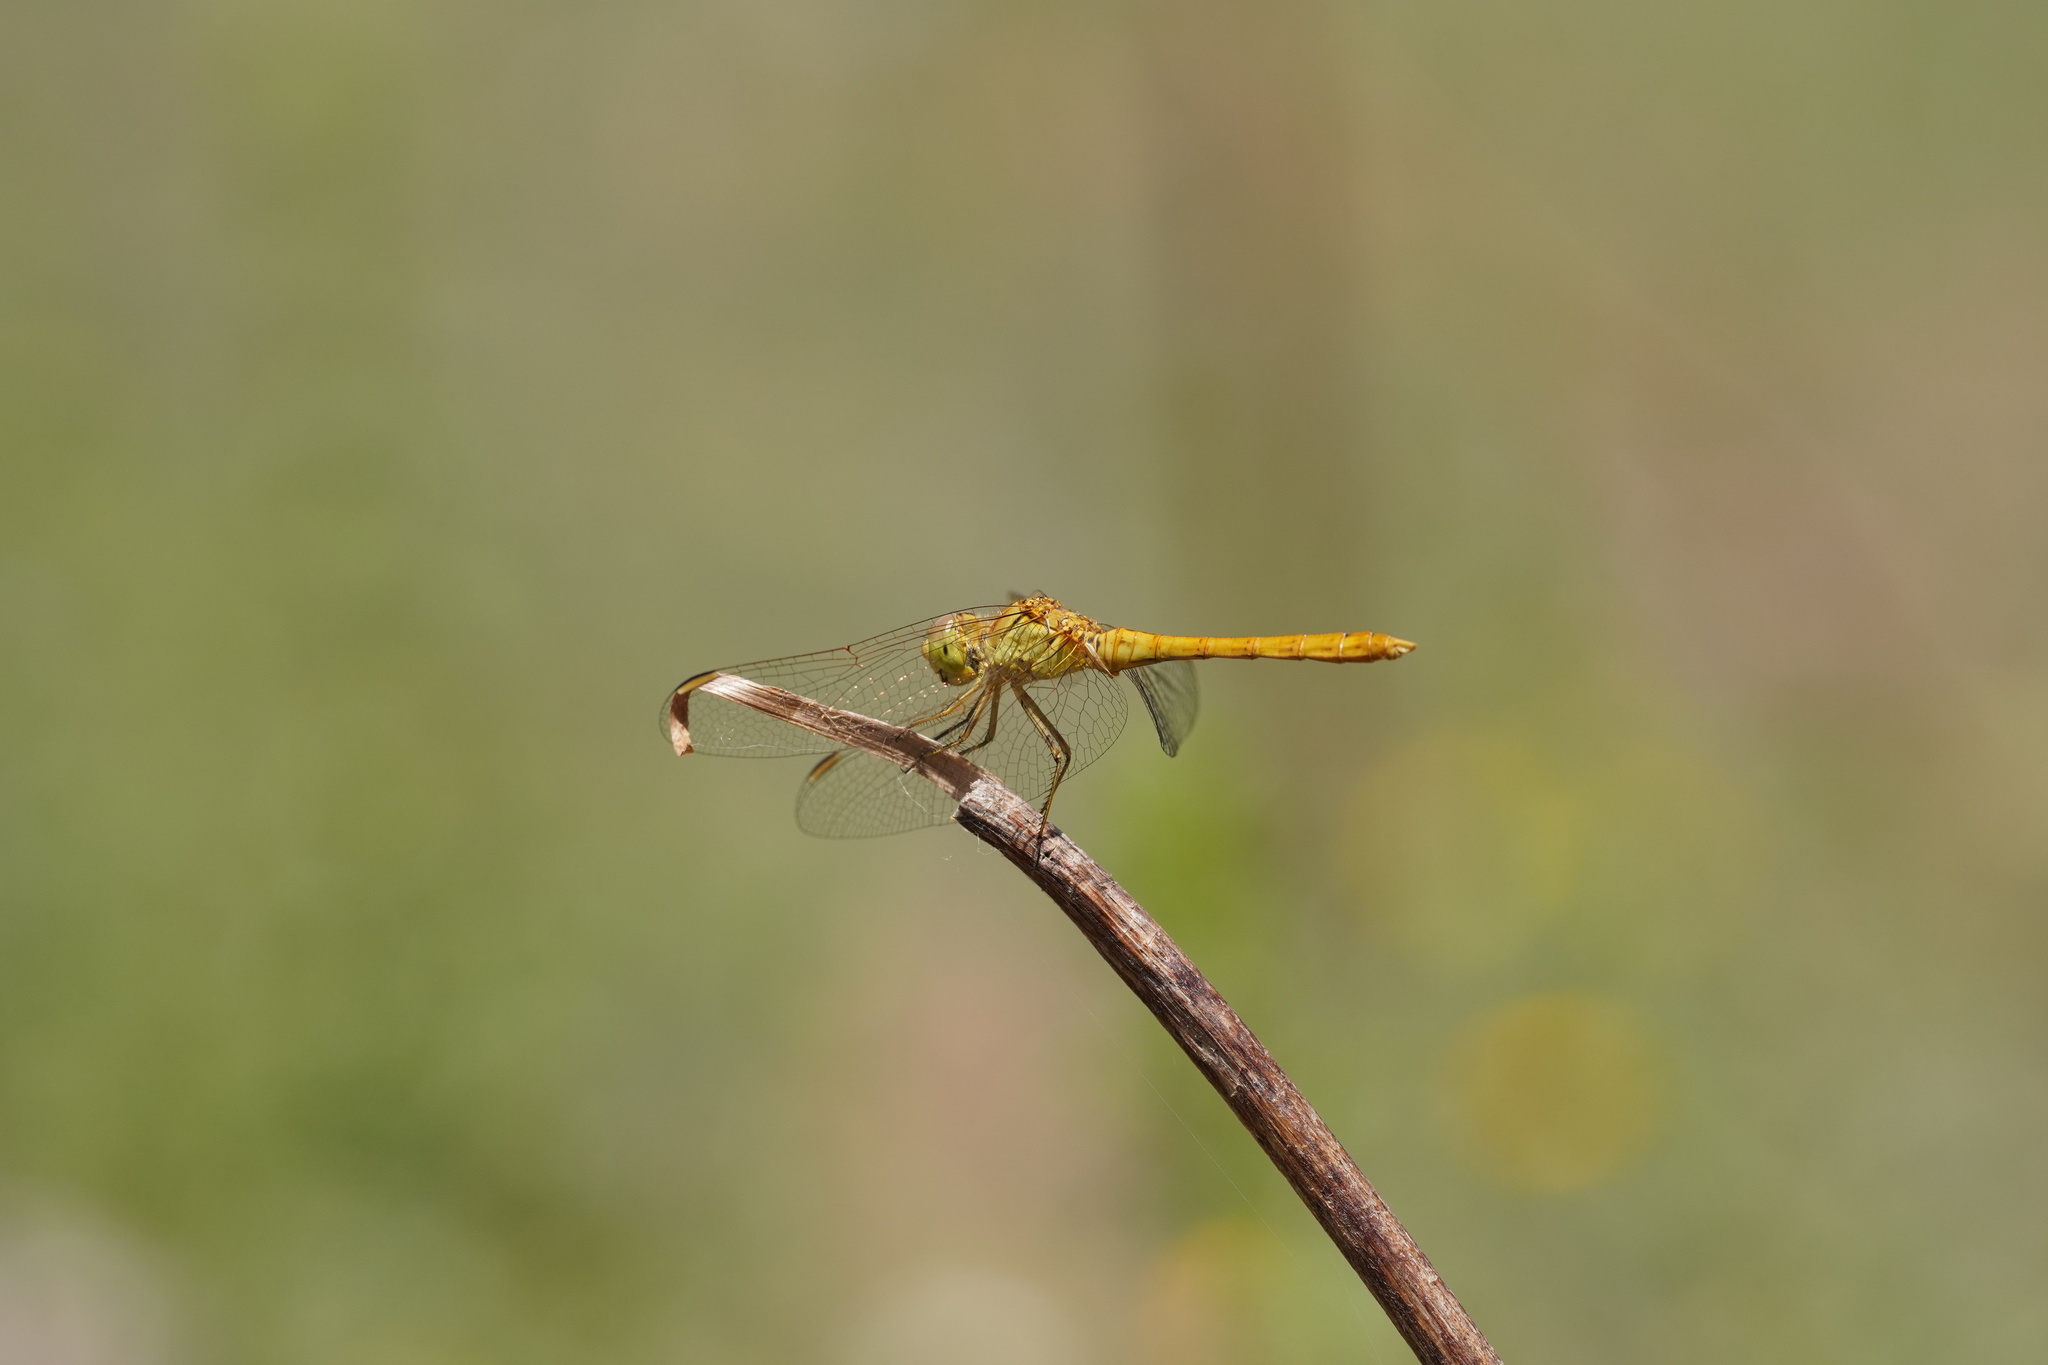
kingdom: Animalia
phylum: Arthropoda
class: Insecta
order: Odonata
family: Libellulidae
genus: Sympetrum
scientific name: Sympetrum meridionale
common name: Southern darter
